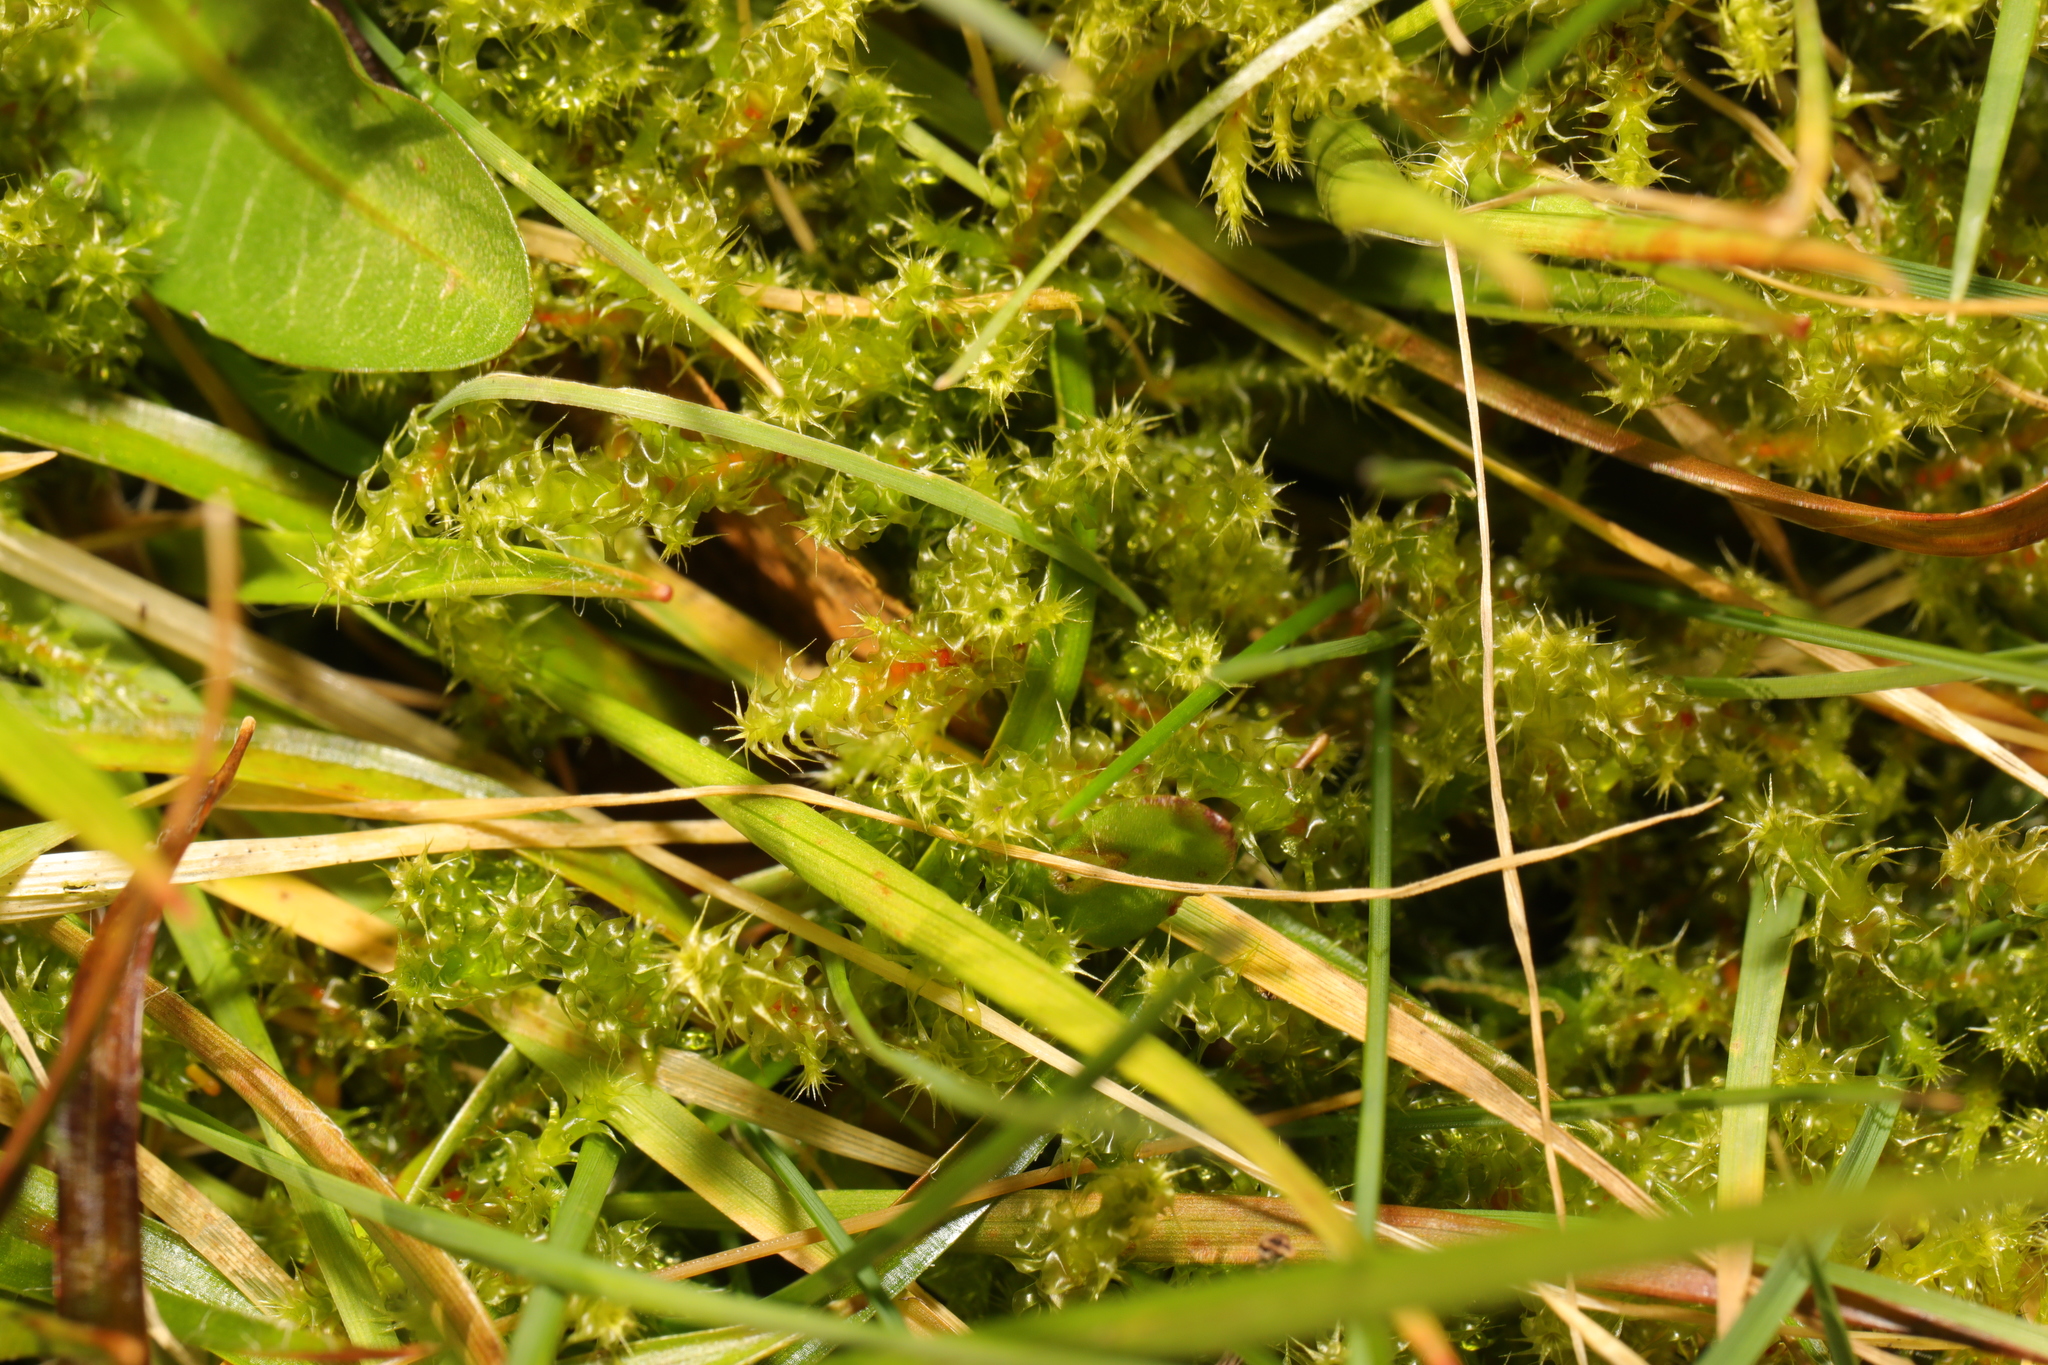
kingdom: Plantae
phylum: Bryophyta
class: Bryopsida
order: Hypnales
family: Hylocomiaceae
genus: Rhytidiadelphus
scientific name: Rhytidiadelphus squarrosus
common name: Springy turf-moss
